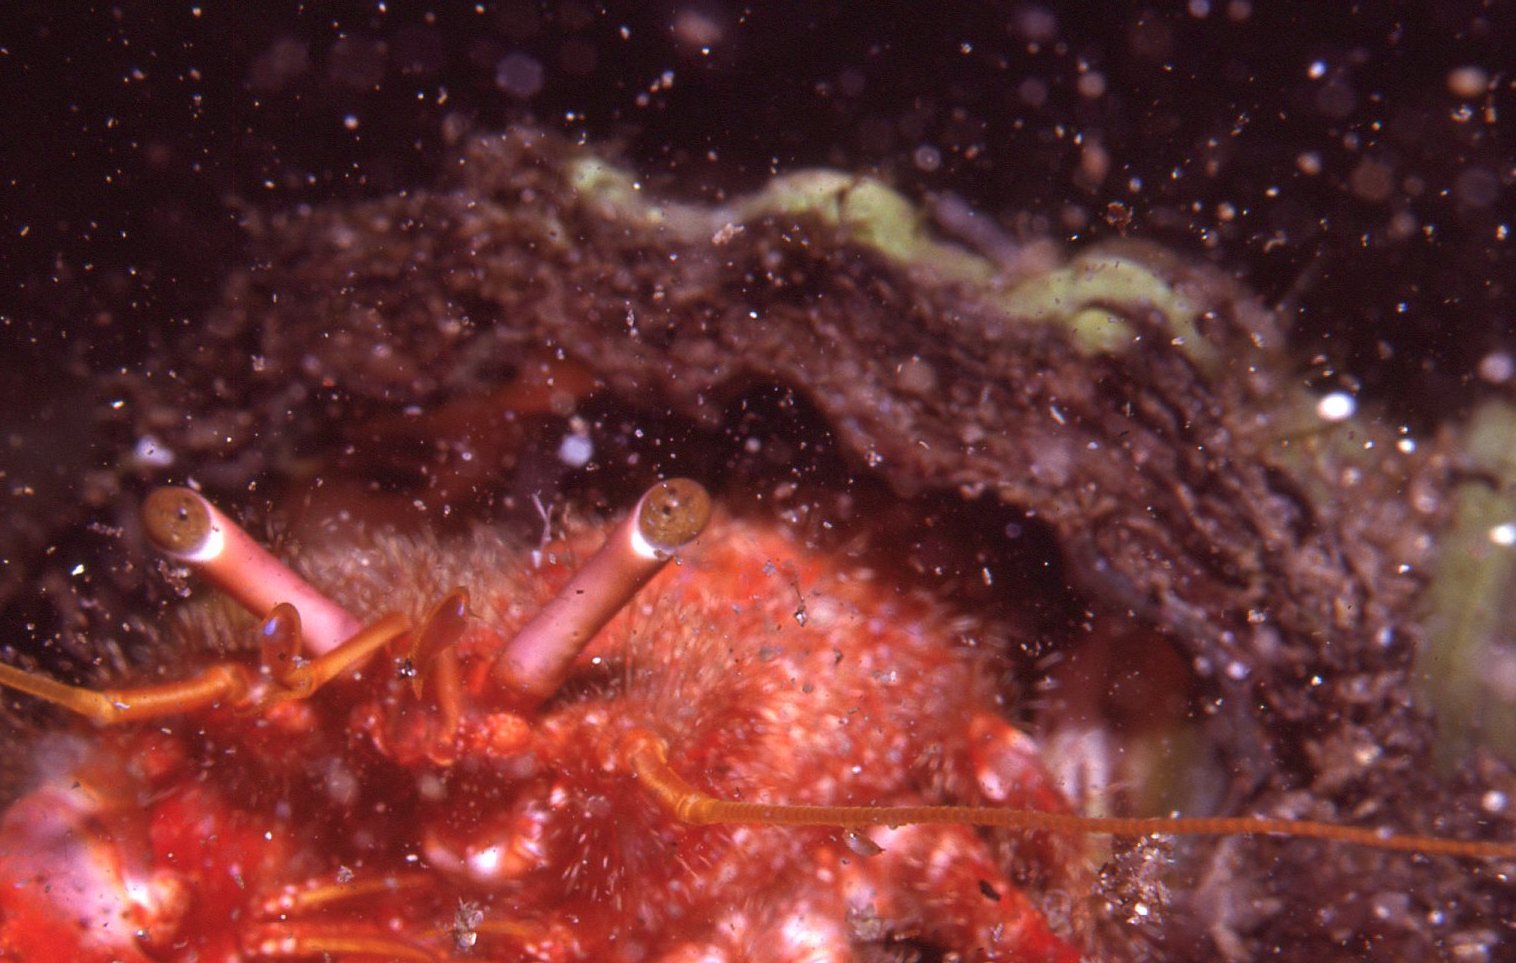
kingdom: Animalia
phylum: Arthropoda
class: Malacostraca
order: Decapoda
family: Diogenidae
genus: Dardanus
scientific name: Dardanus crassimanus
